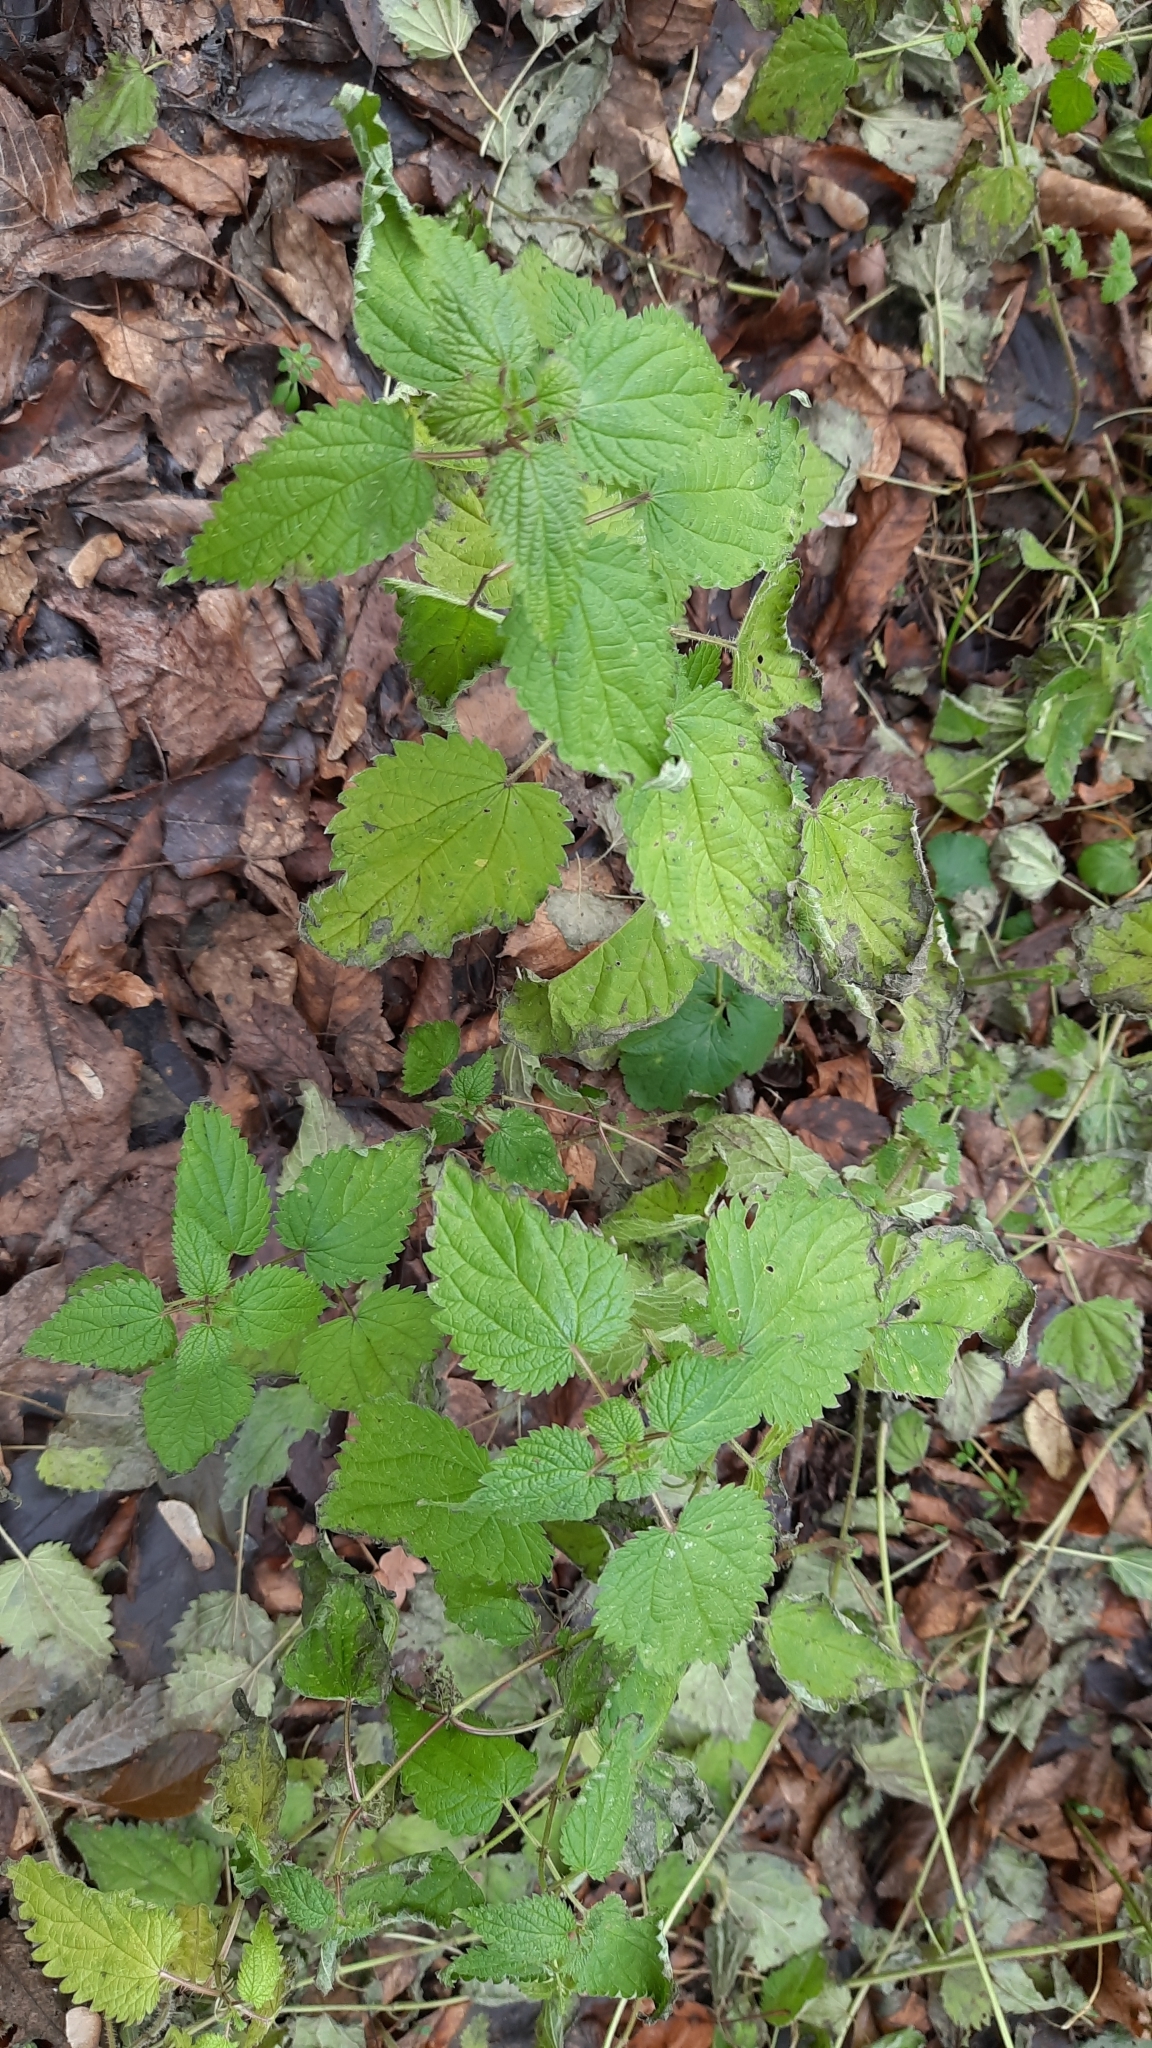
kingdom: Plantae
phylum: Tracheophyta
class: Magnoliopsida
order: Rosales
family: Urticaceae
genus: Urtica
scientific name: Urtica dioica
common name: Common nettle
